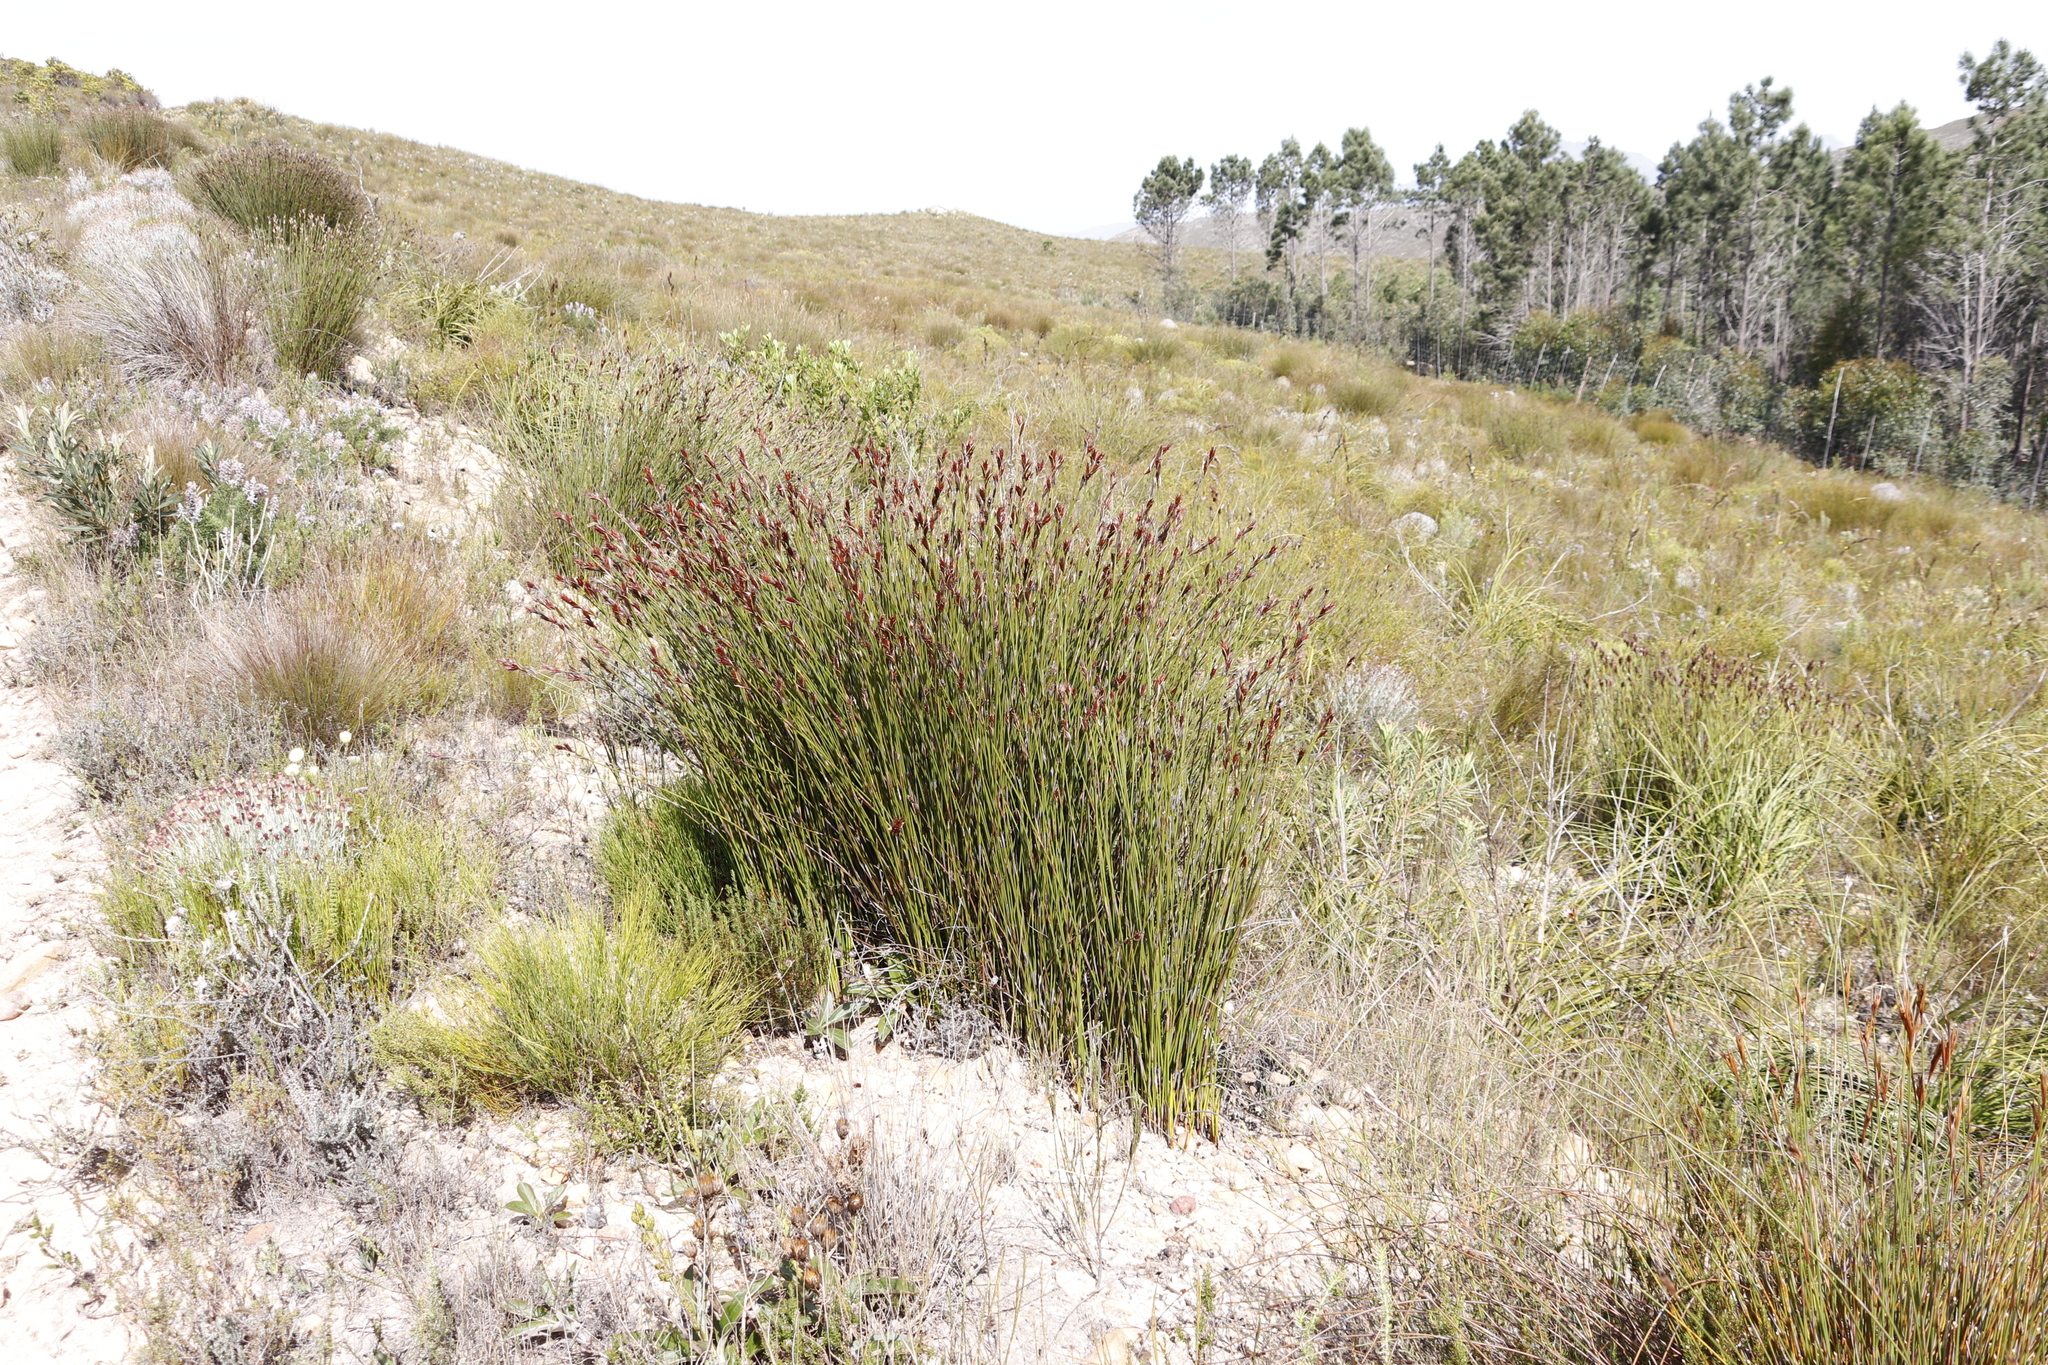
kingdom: Plantae
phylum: Tracheophyta
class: Liliopsida
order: Poales
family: Restionaceae
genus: Hypodiscus
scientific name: Hypodiscus aristatus
